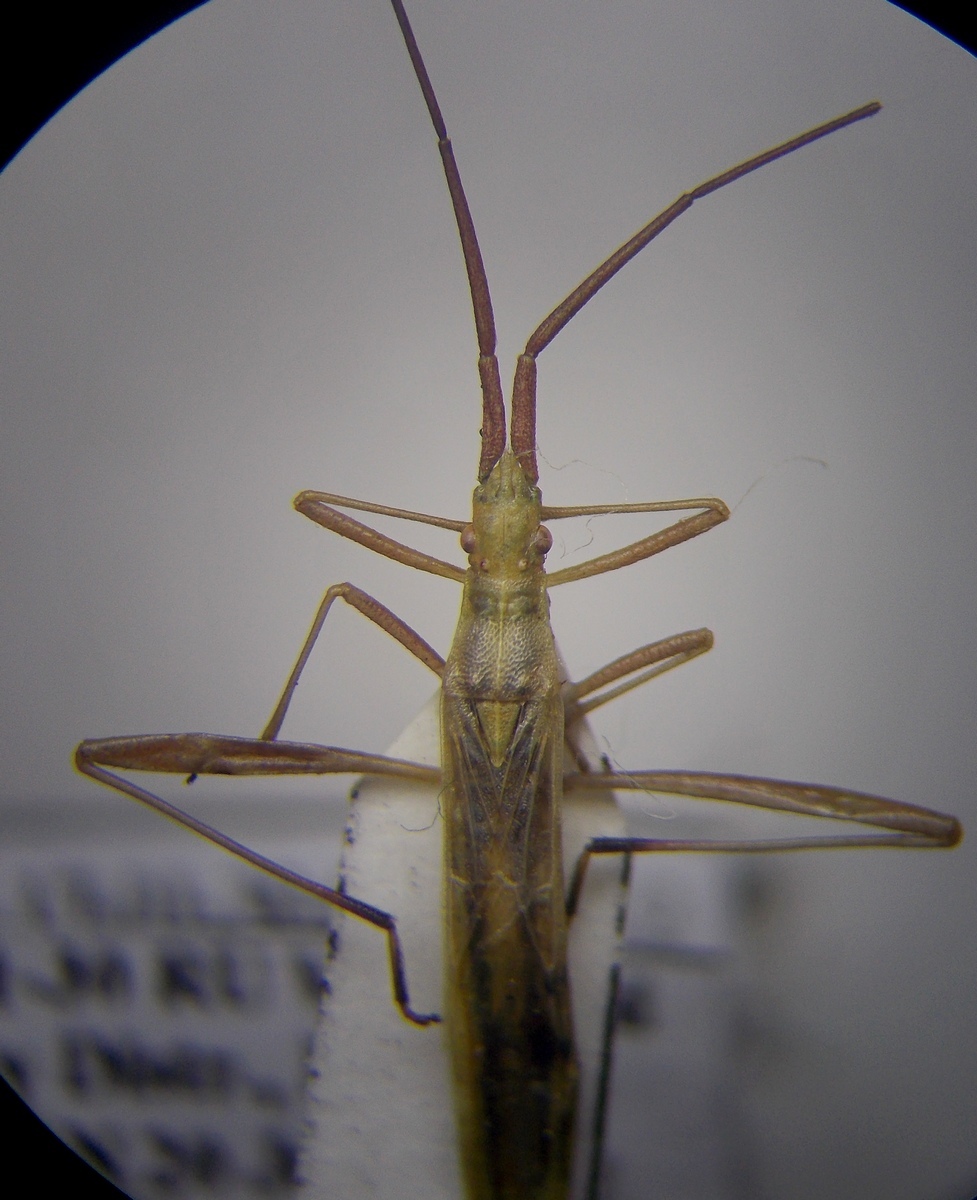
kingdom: Animalia
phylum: Arthropoda
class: Insecta
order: Hemiptera
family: Rhopalidae
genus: Chorosoma
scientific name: Chorosoma gracile
